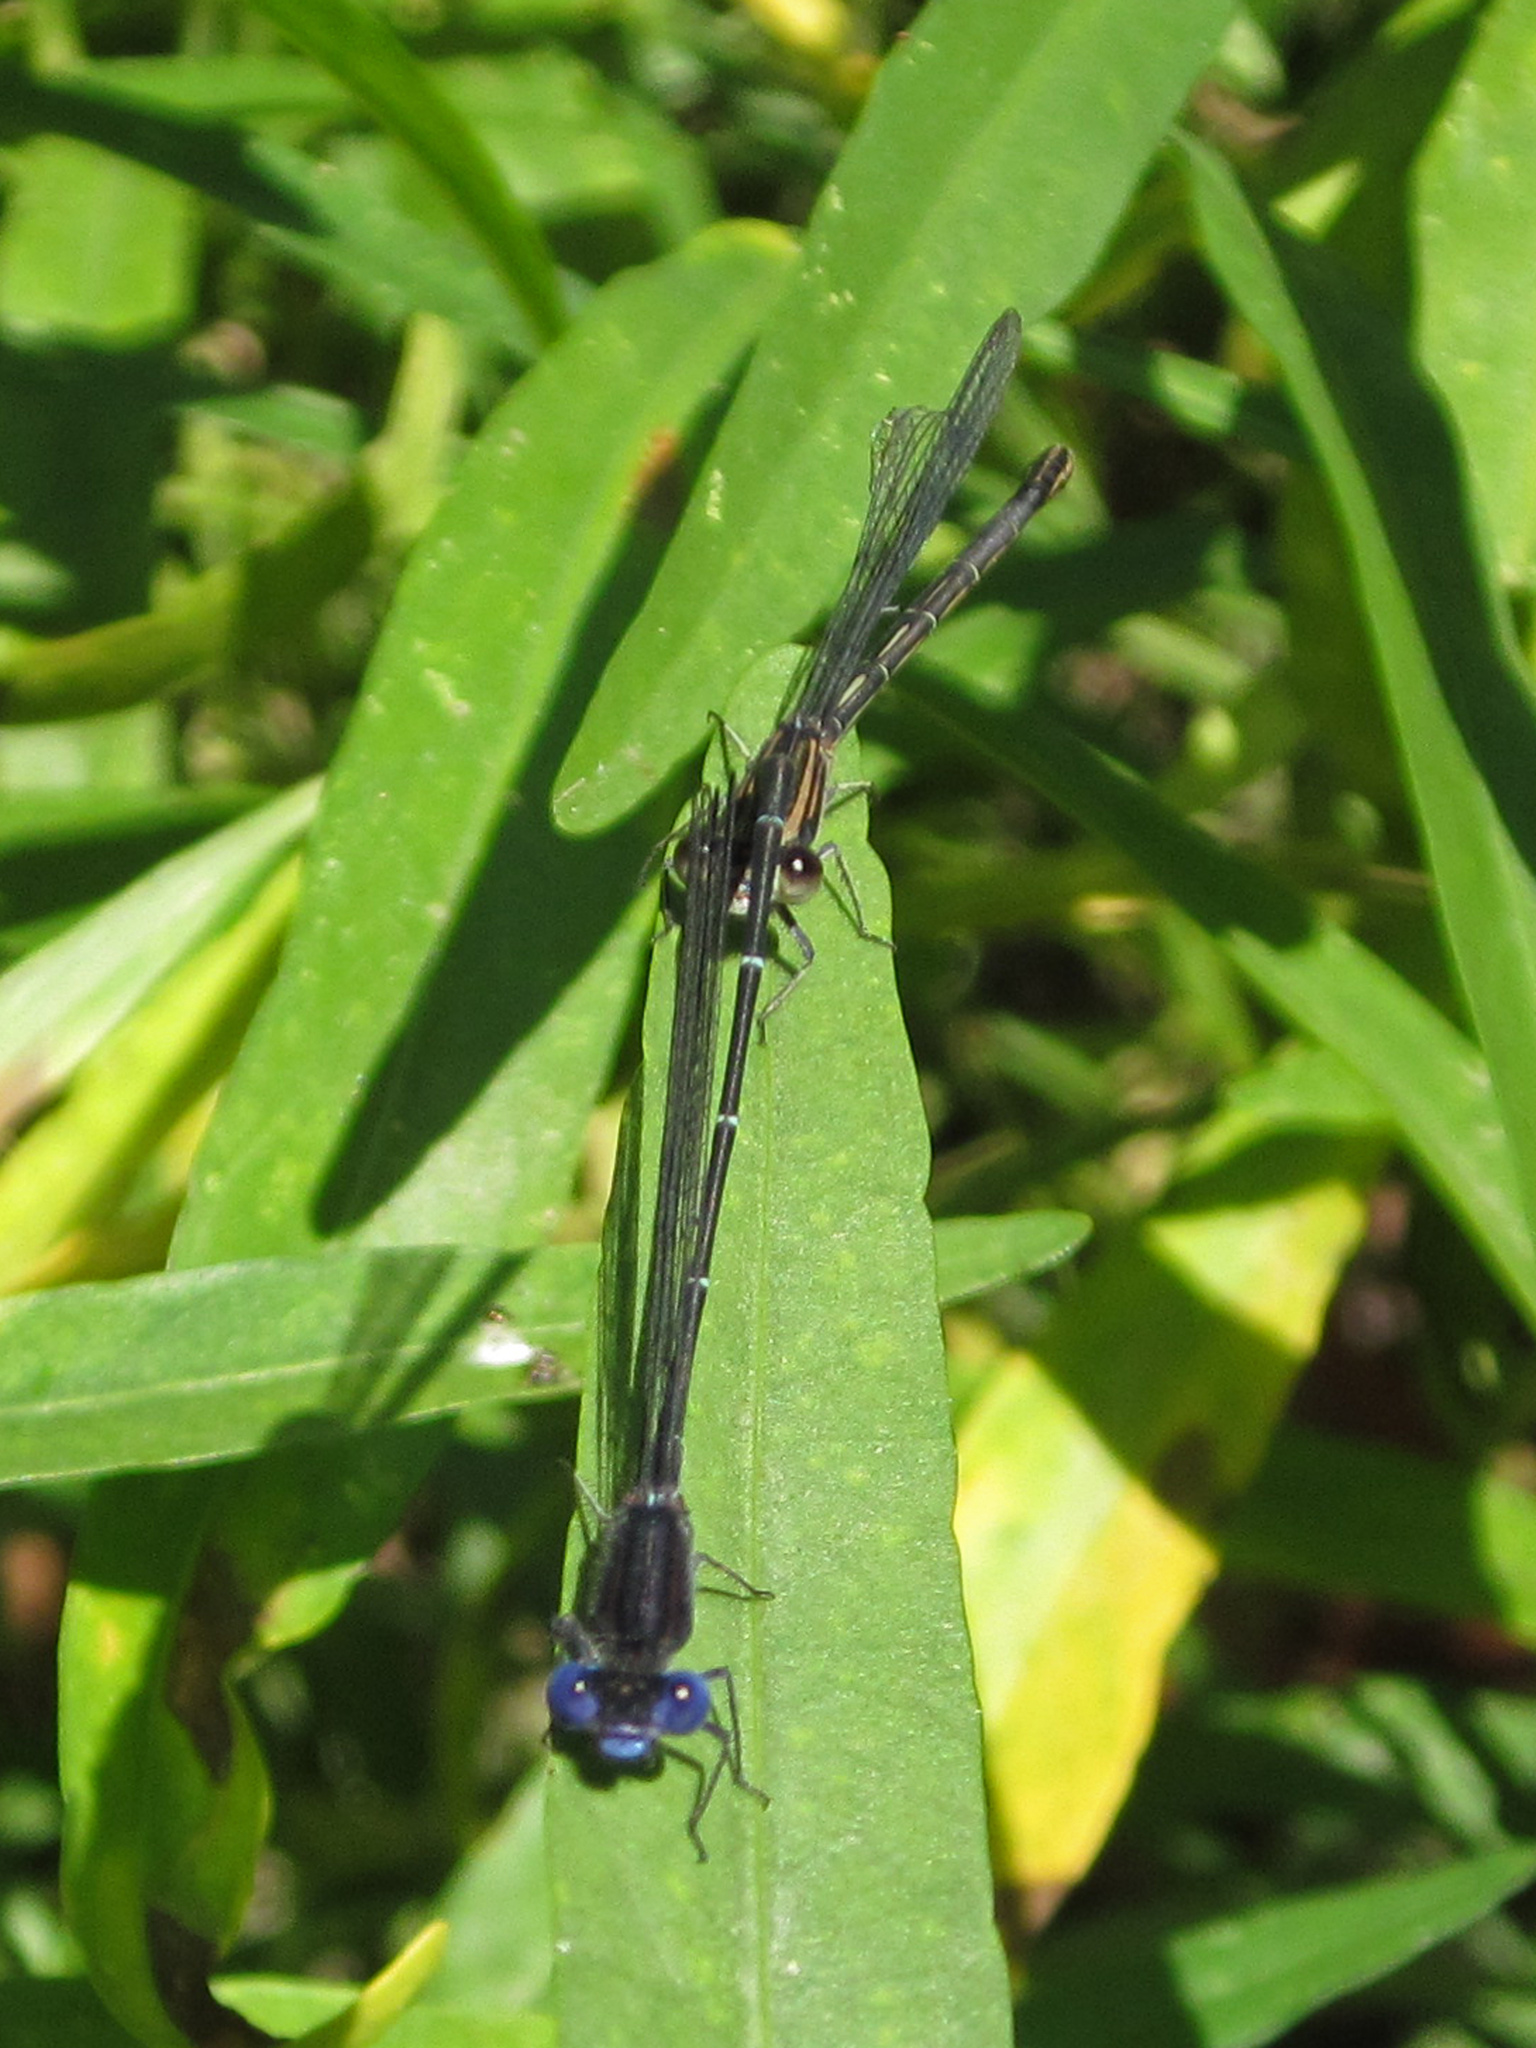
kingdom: Animalia
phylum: Arthropoda
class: Insecta
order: Odonata
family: Coenagrionidae
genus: Argia
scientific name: Argia translata
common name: Dusky dancer
